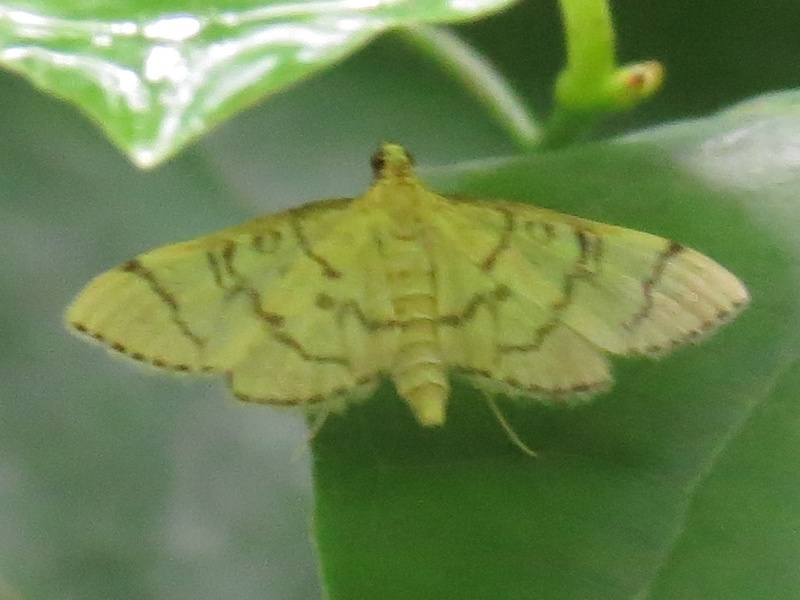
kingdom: Animalia
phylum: Arthropoda
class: Insecta
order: Lepidoptera
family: Crambidae
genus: Lamprosema
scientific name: Lamprosema Blepharomastix ranalis
